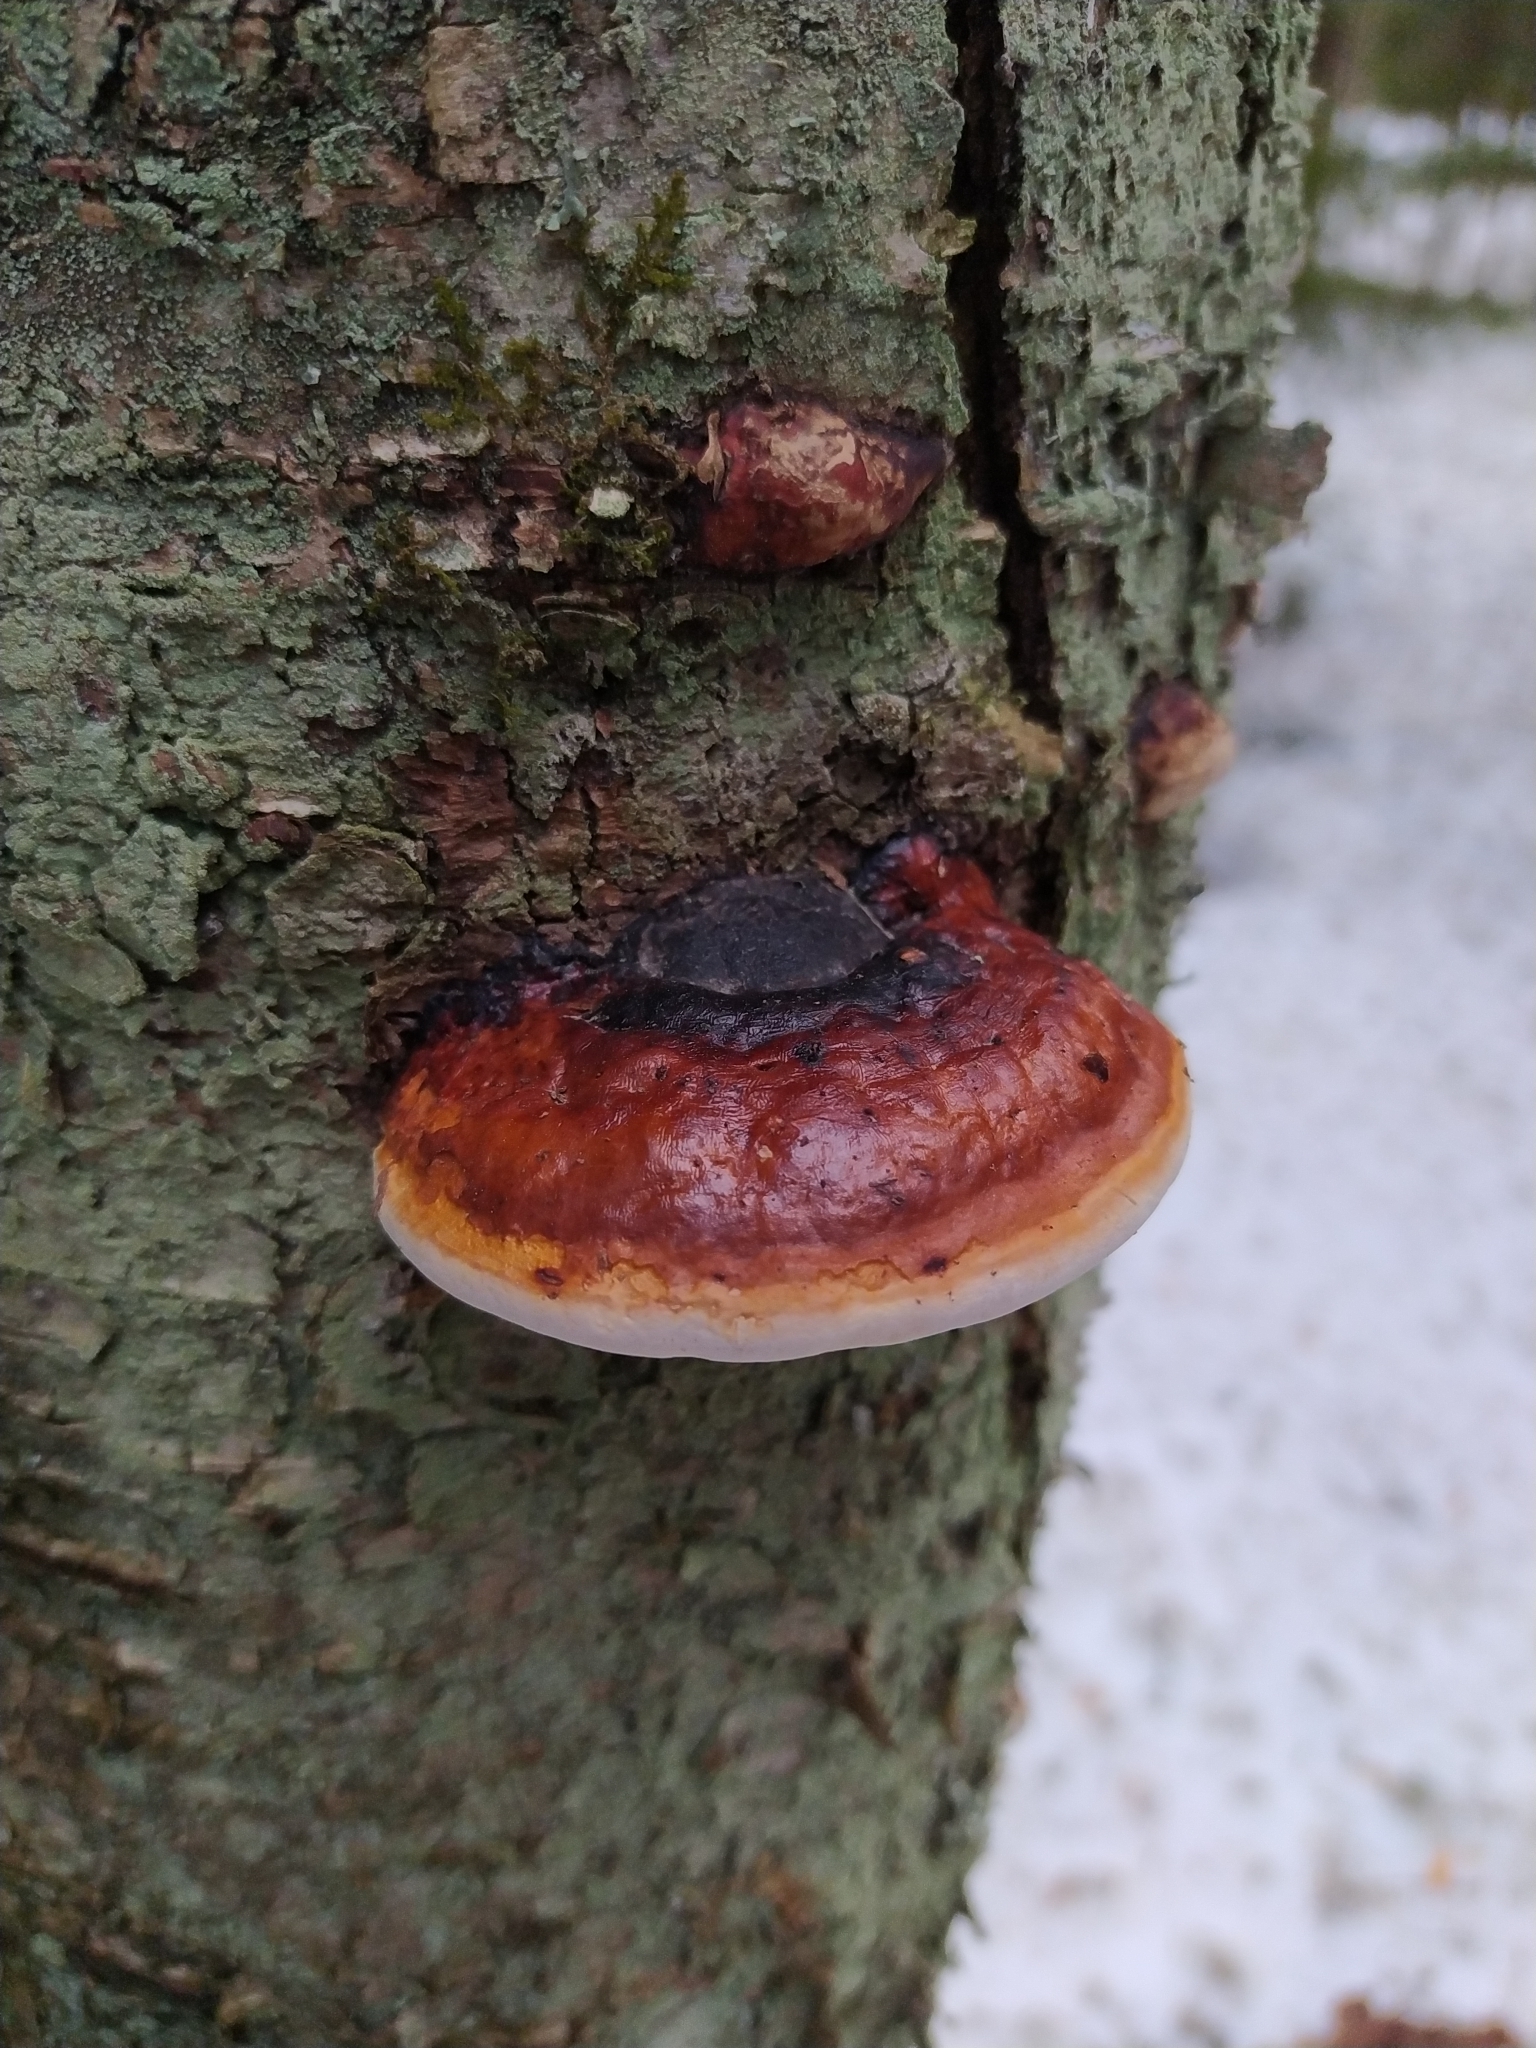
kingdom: Fungi
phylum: Basidiomycota
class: Agaricomycetes
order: Polyporales
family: Fomitopsidaceae
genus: Fomitopsis
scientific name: Fomitopsis pinicola
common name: Red-belted bracket
